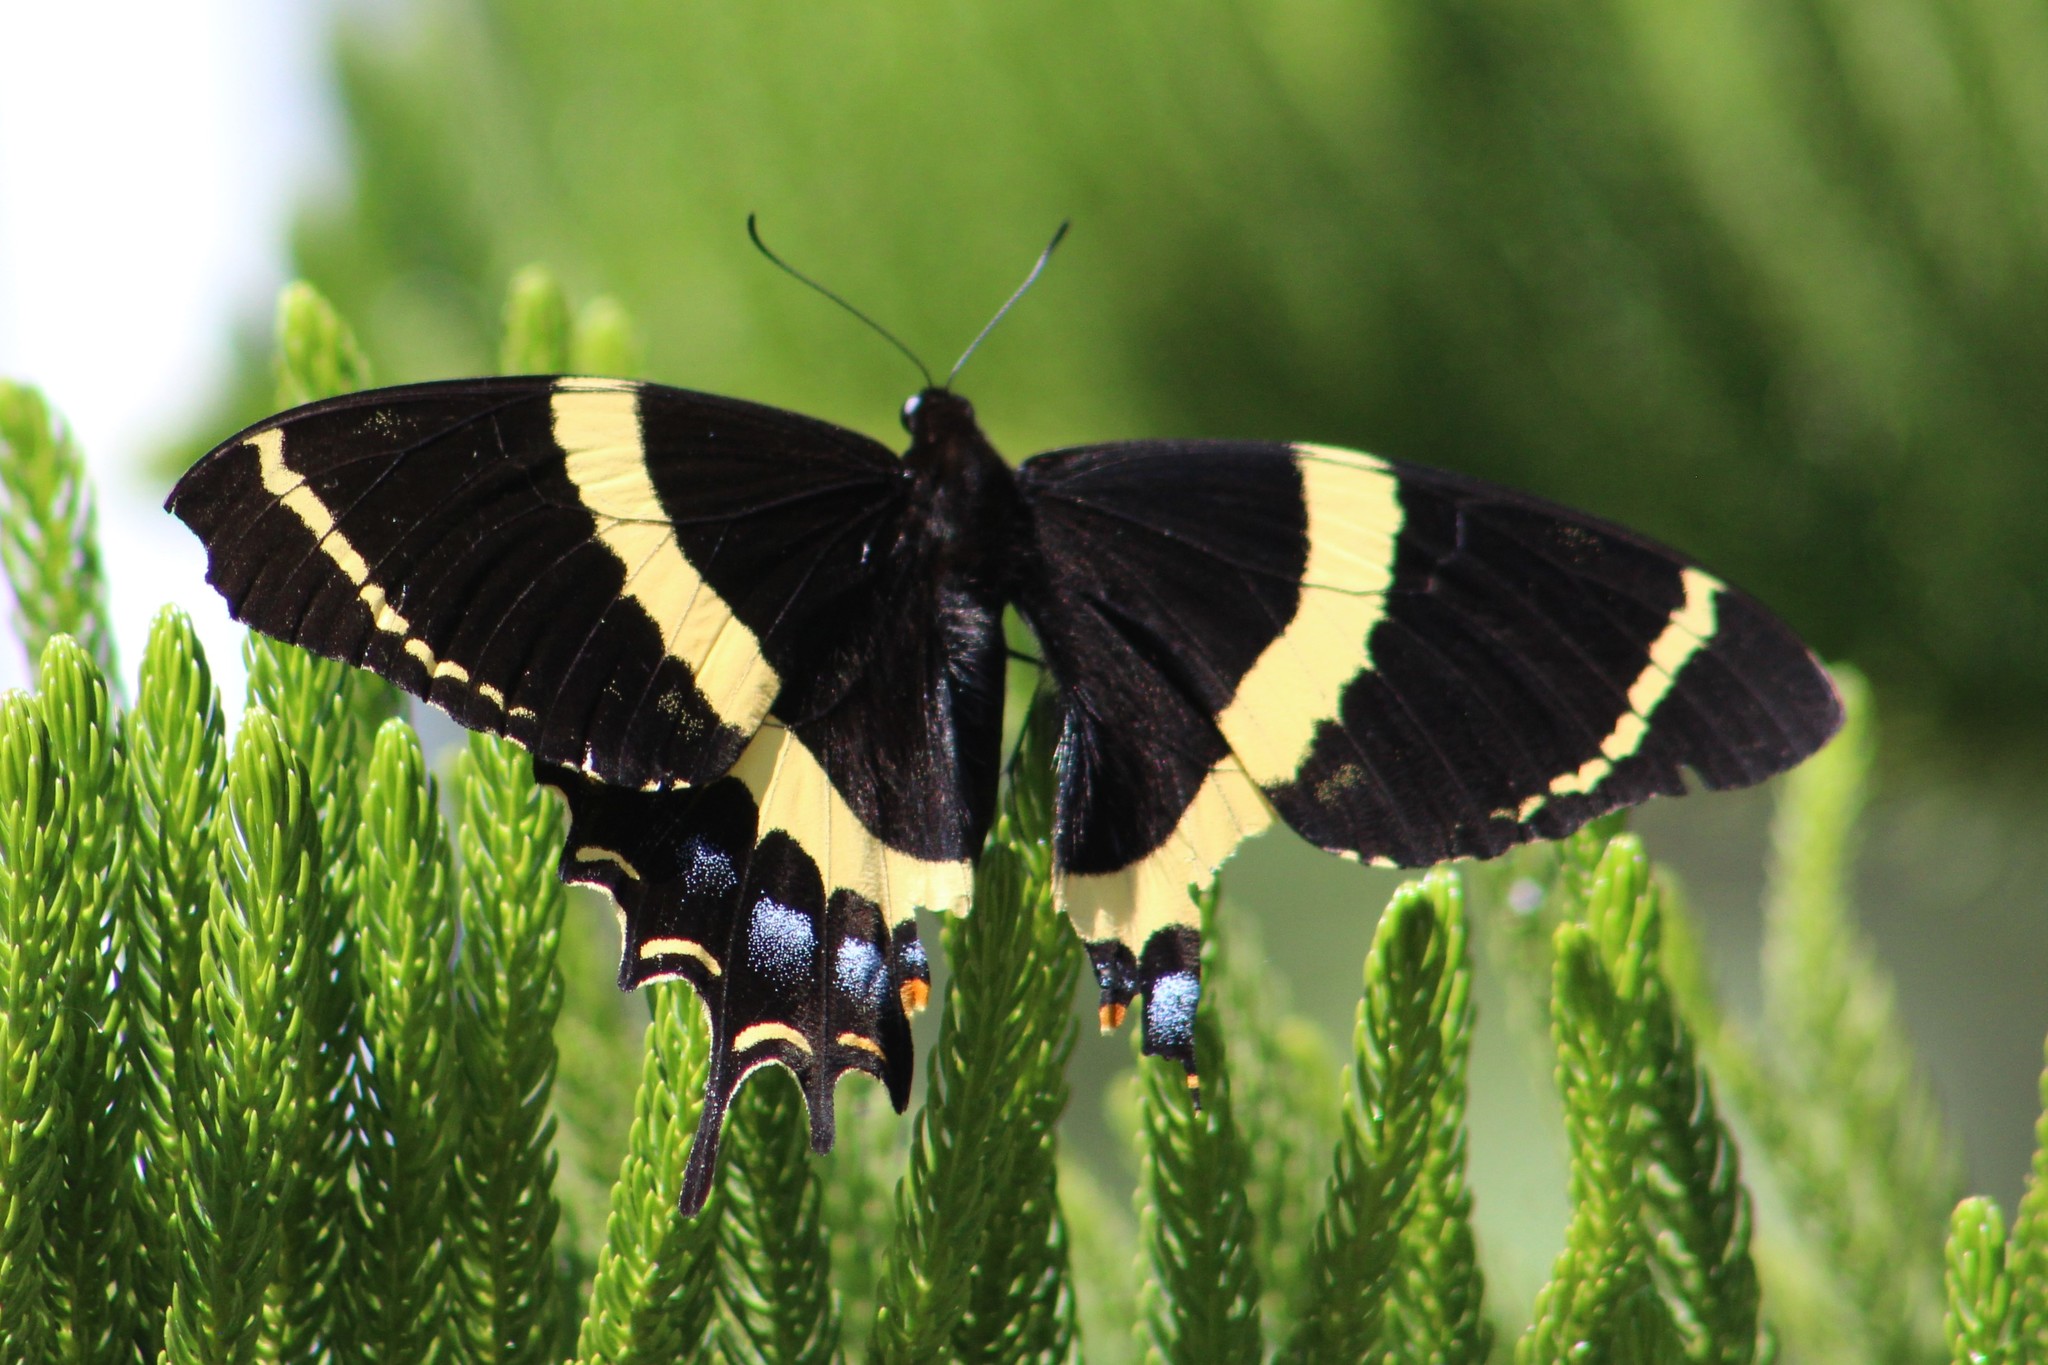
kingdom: Animalia
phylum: Arthropoda
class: Insecta
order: Lepidoptera
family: Papilionidae
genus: Papilio
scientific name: Papilio garamas
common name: Magnificent swallowtail
